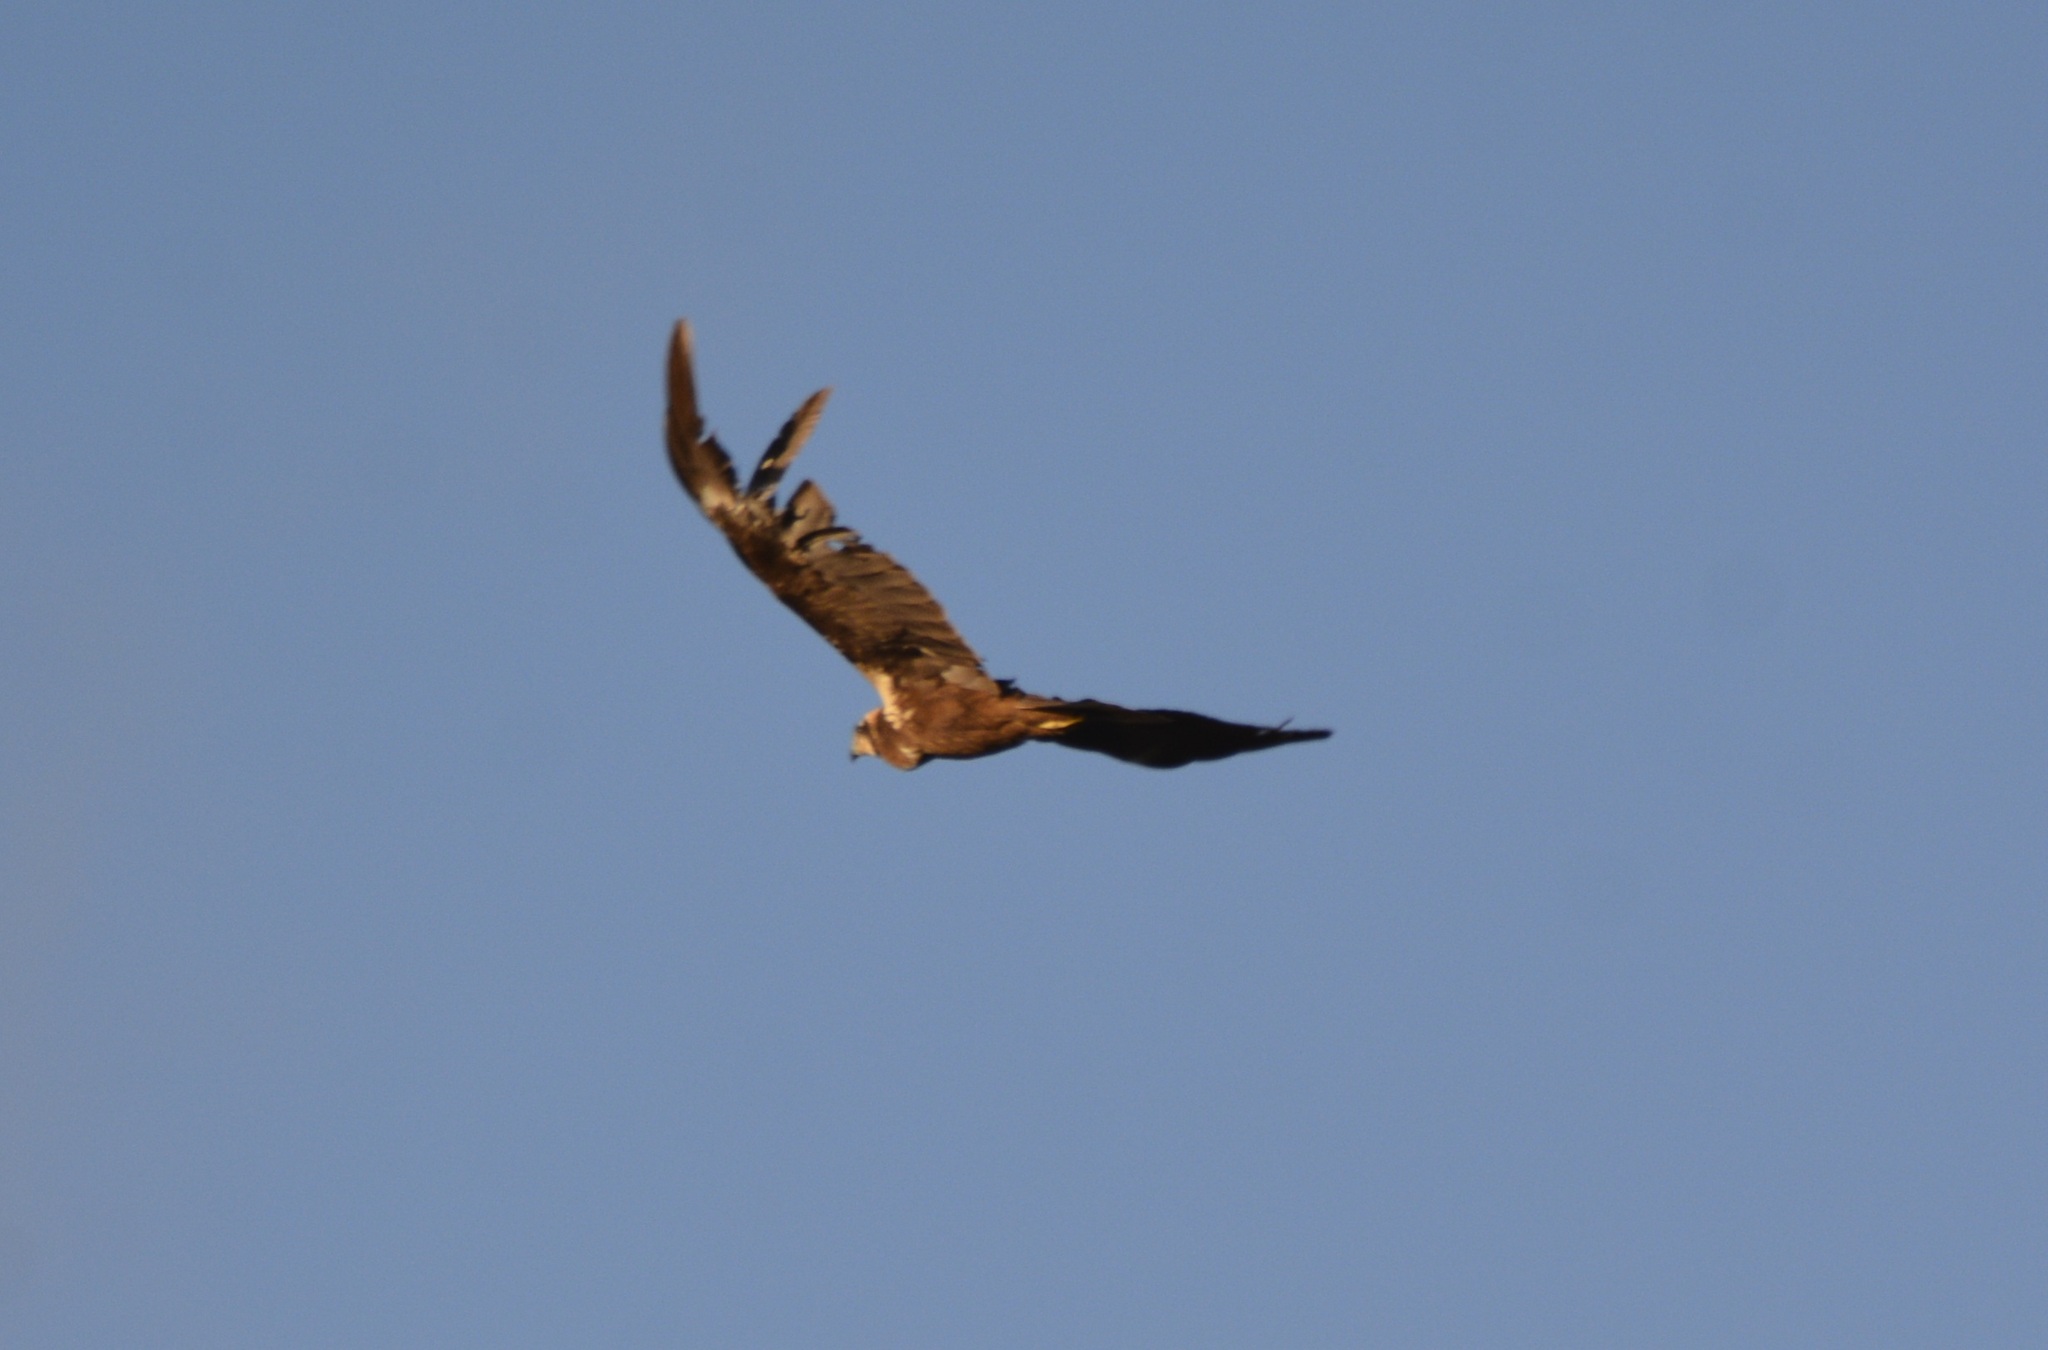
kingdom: Animalia
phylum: Chordata
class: Aves
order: Accipitriformes
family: Accipitridae
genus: Circus
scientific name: Circus aeruginosus
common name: Western marsh harrier
